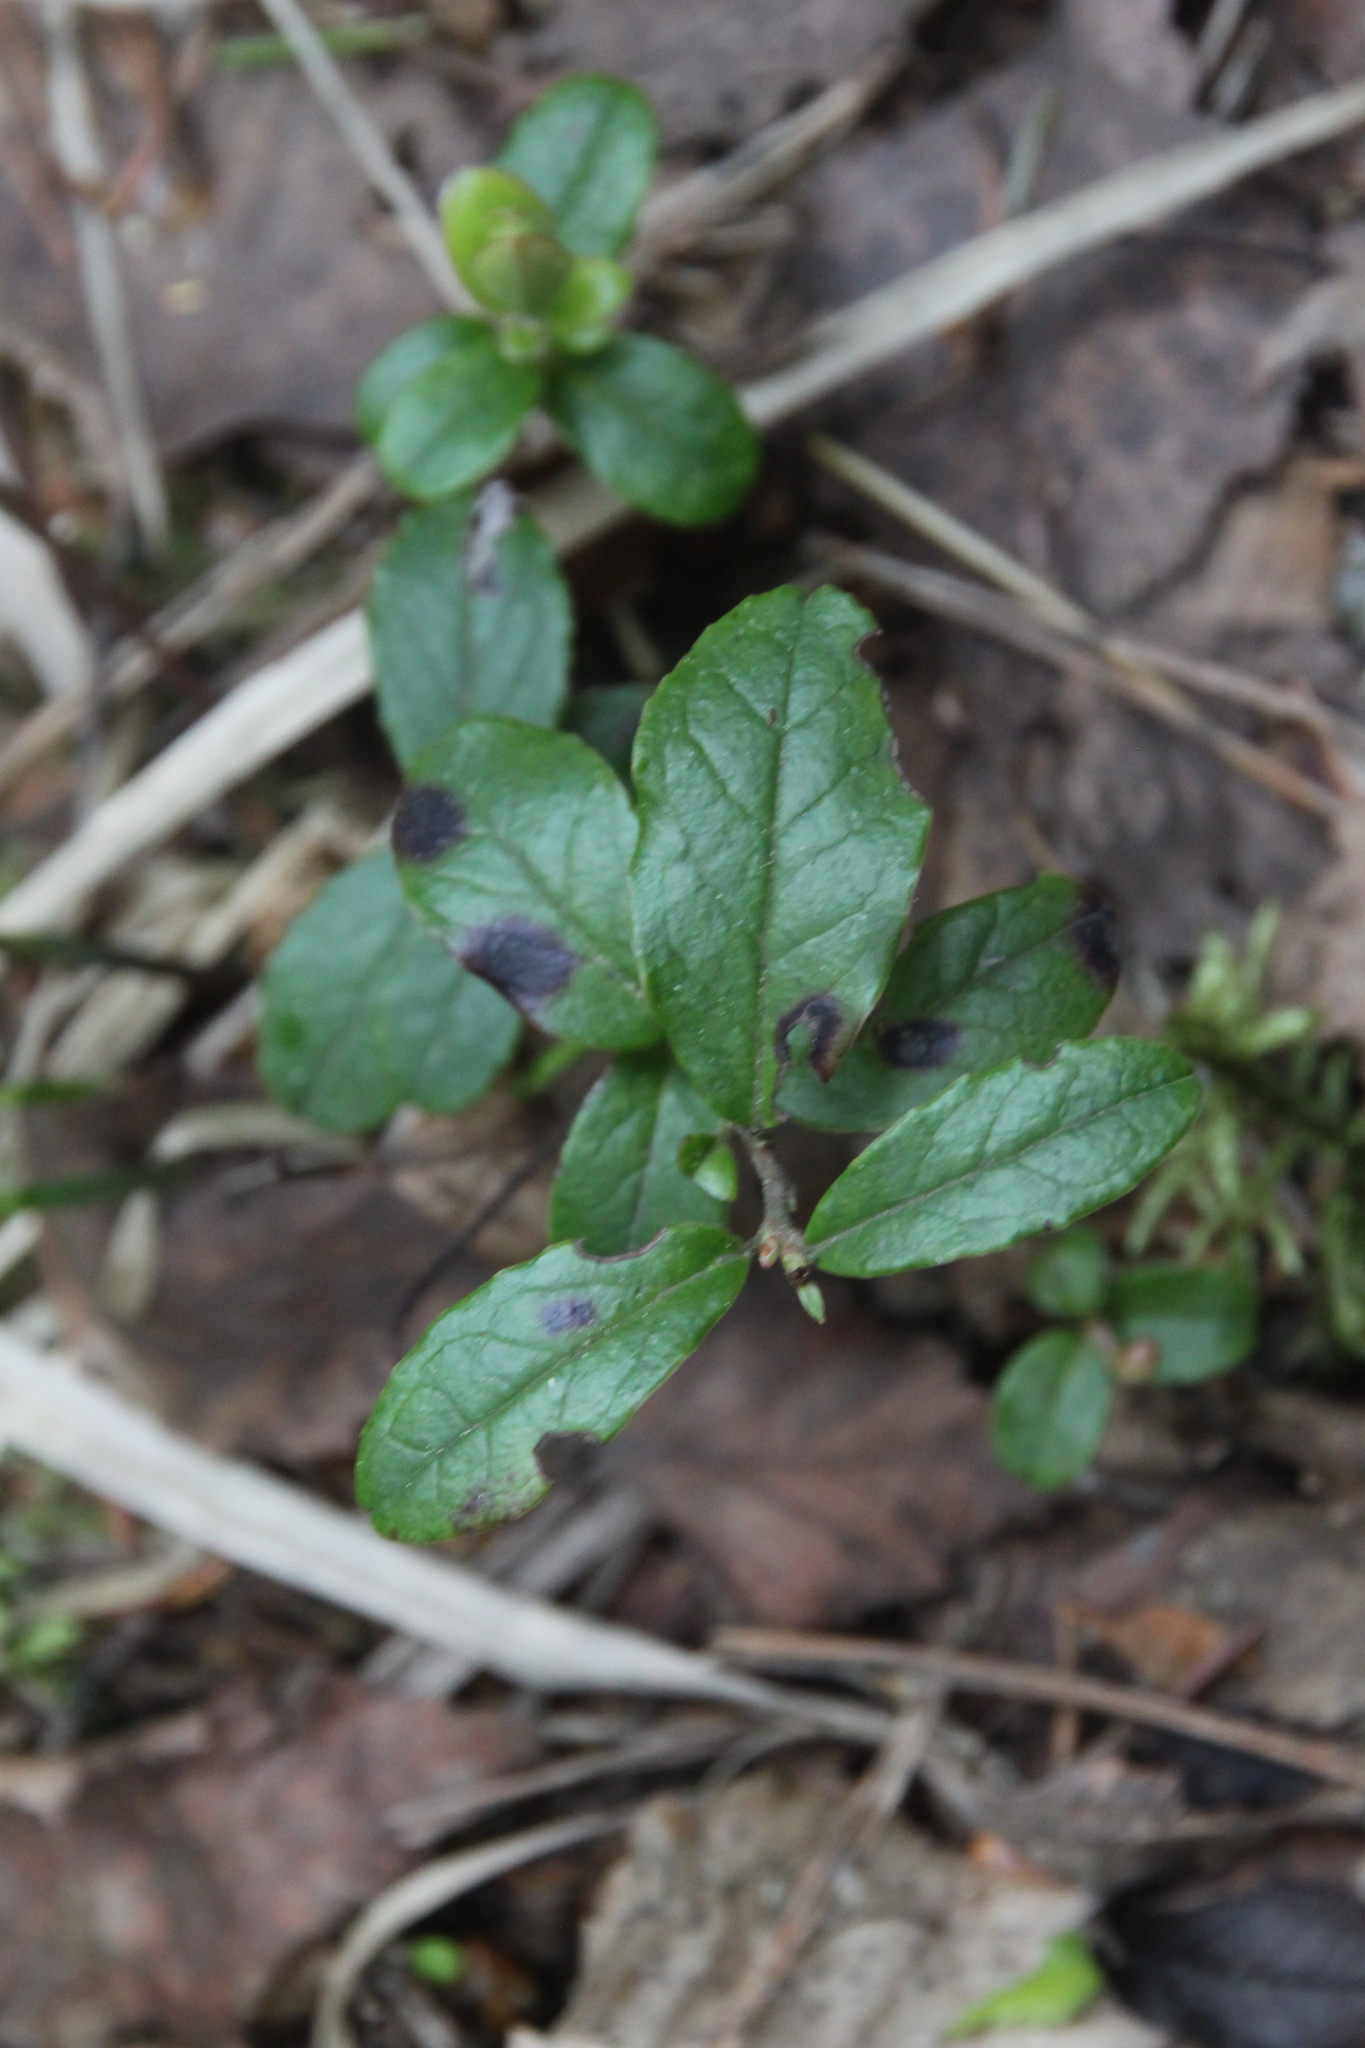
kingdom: Plantae
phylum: Tracheophyta
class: Magnoliopsida
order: Ericales
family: Ericaceae
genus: Vaccinium
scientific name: Vaccinium vitis-idaea
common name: Cowberry
